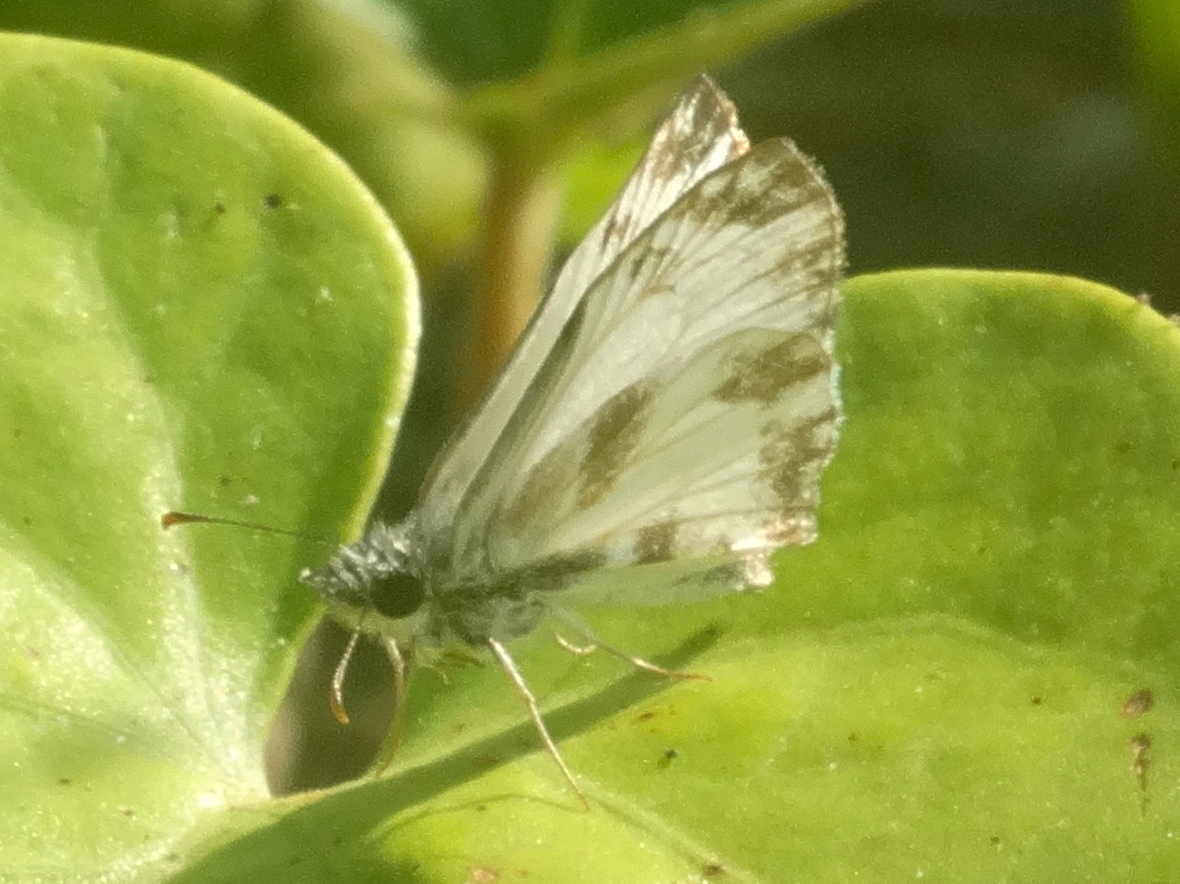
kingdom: Animalia
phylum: Arthropoda
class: Insecta
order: Lepidoptera
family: Hesperiidae
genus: Heliopetes
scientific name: Heliopetes macaira
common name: Turk's-cap white-skipper
